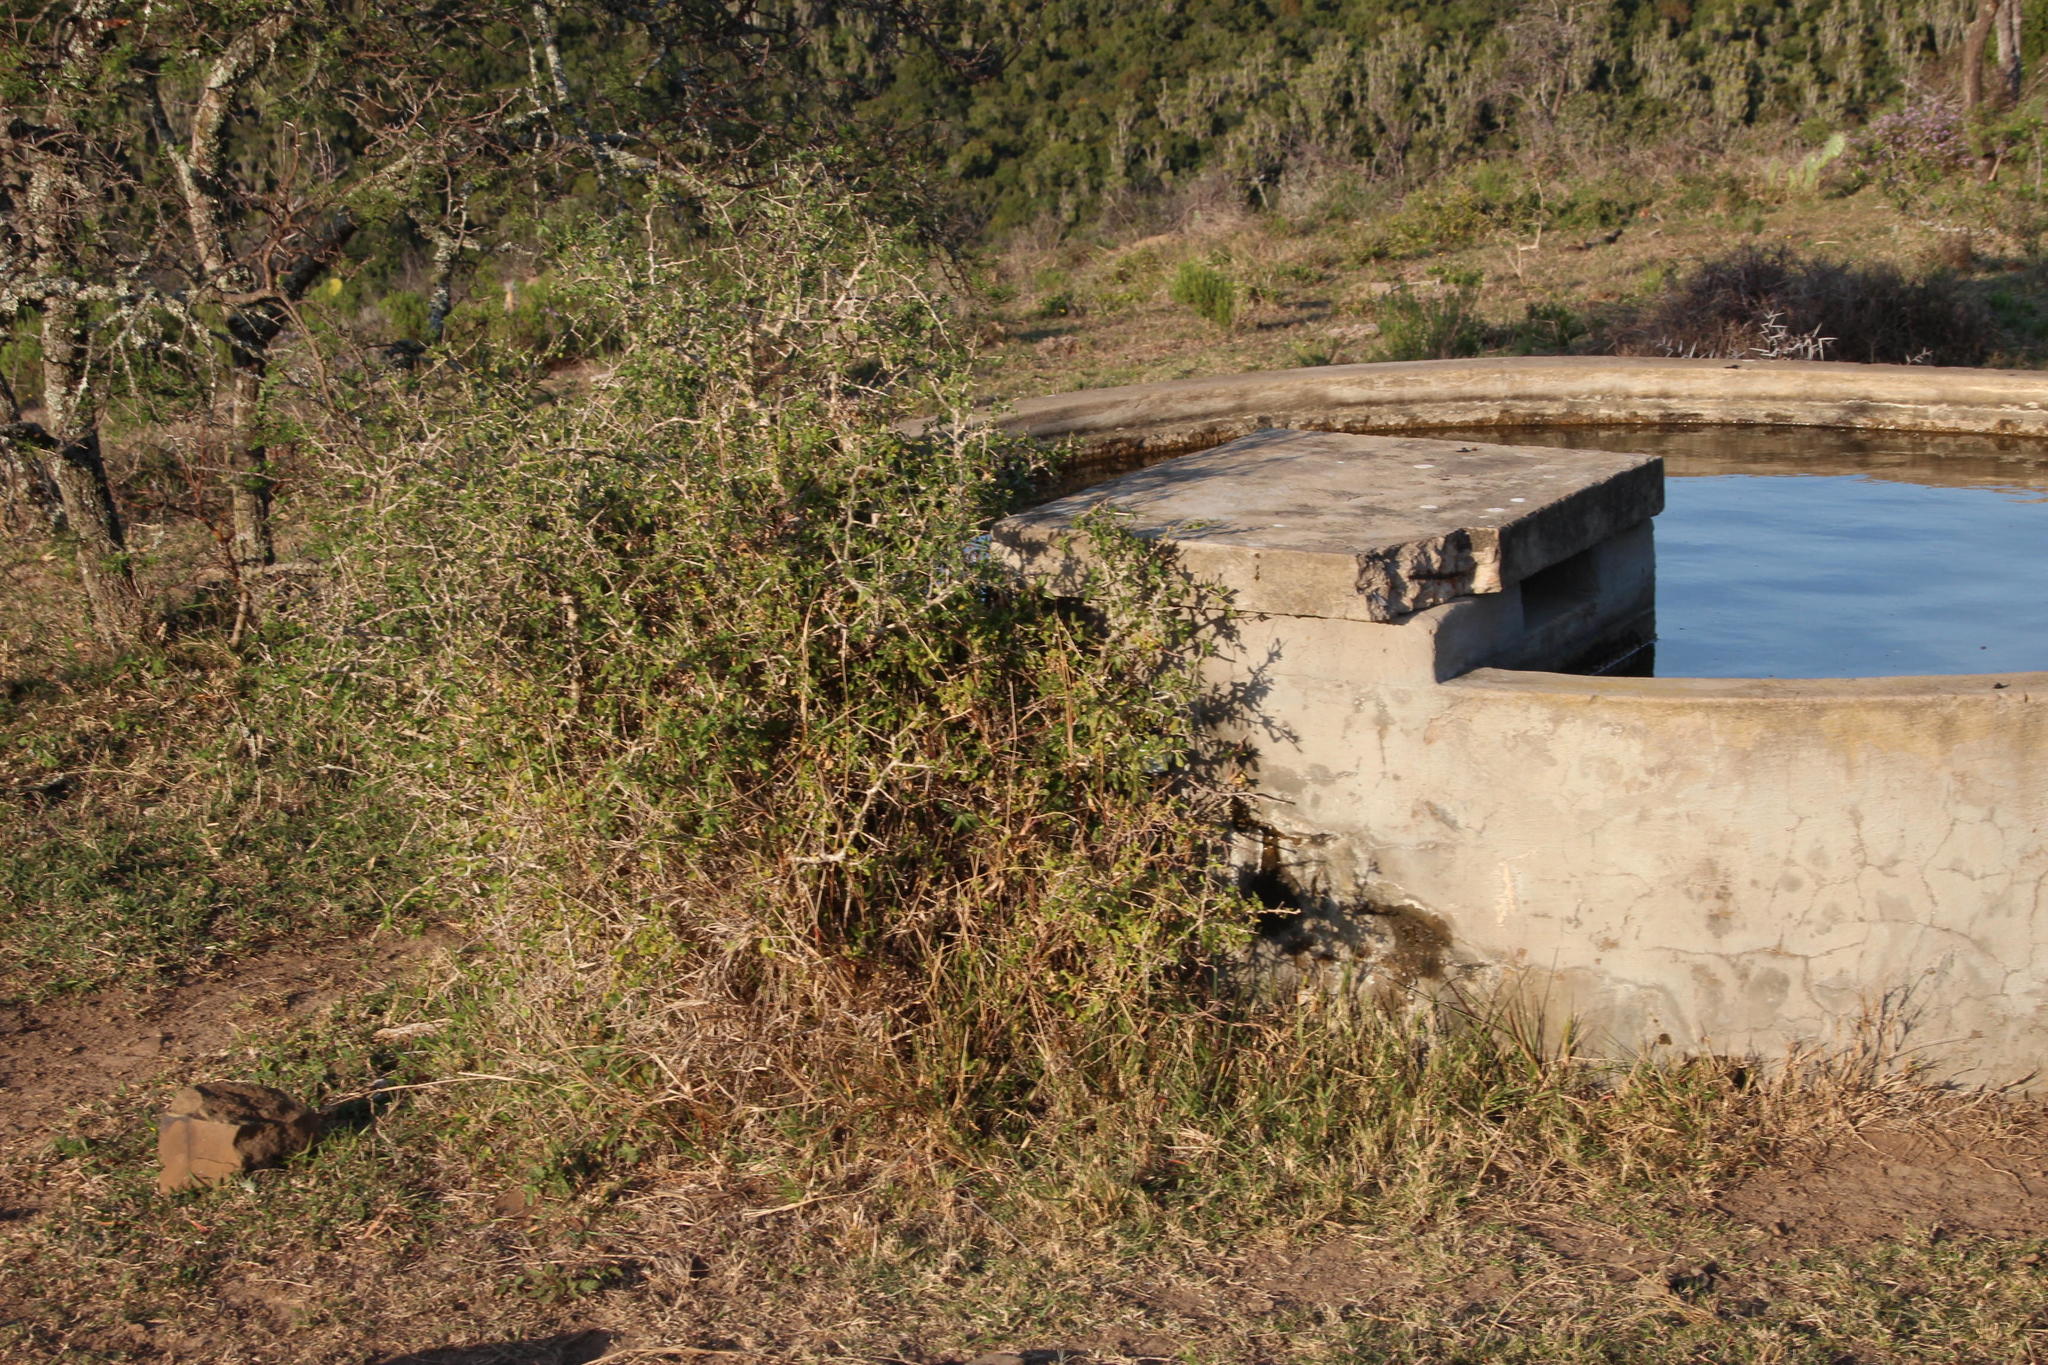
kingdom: Plantae
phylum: Tracheophyta
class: Magnoliopsida
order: Solanales
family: Solanaceae
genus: Lycium
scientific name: Lycium ferocissimum
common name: African boxthorn
